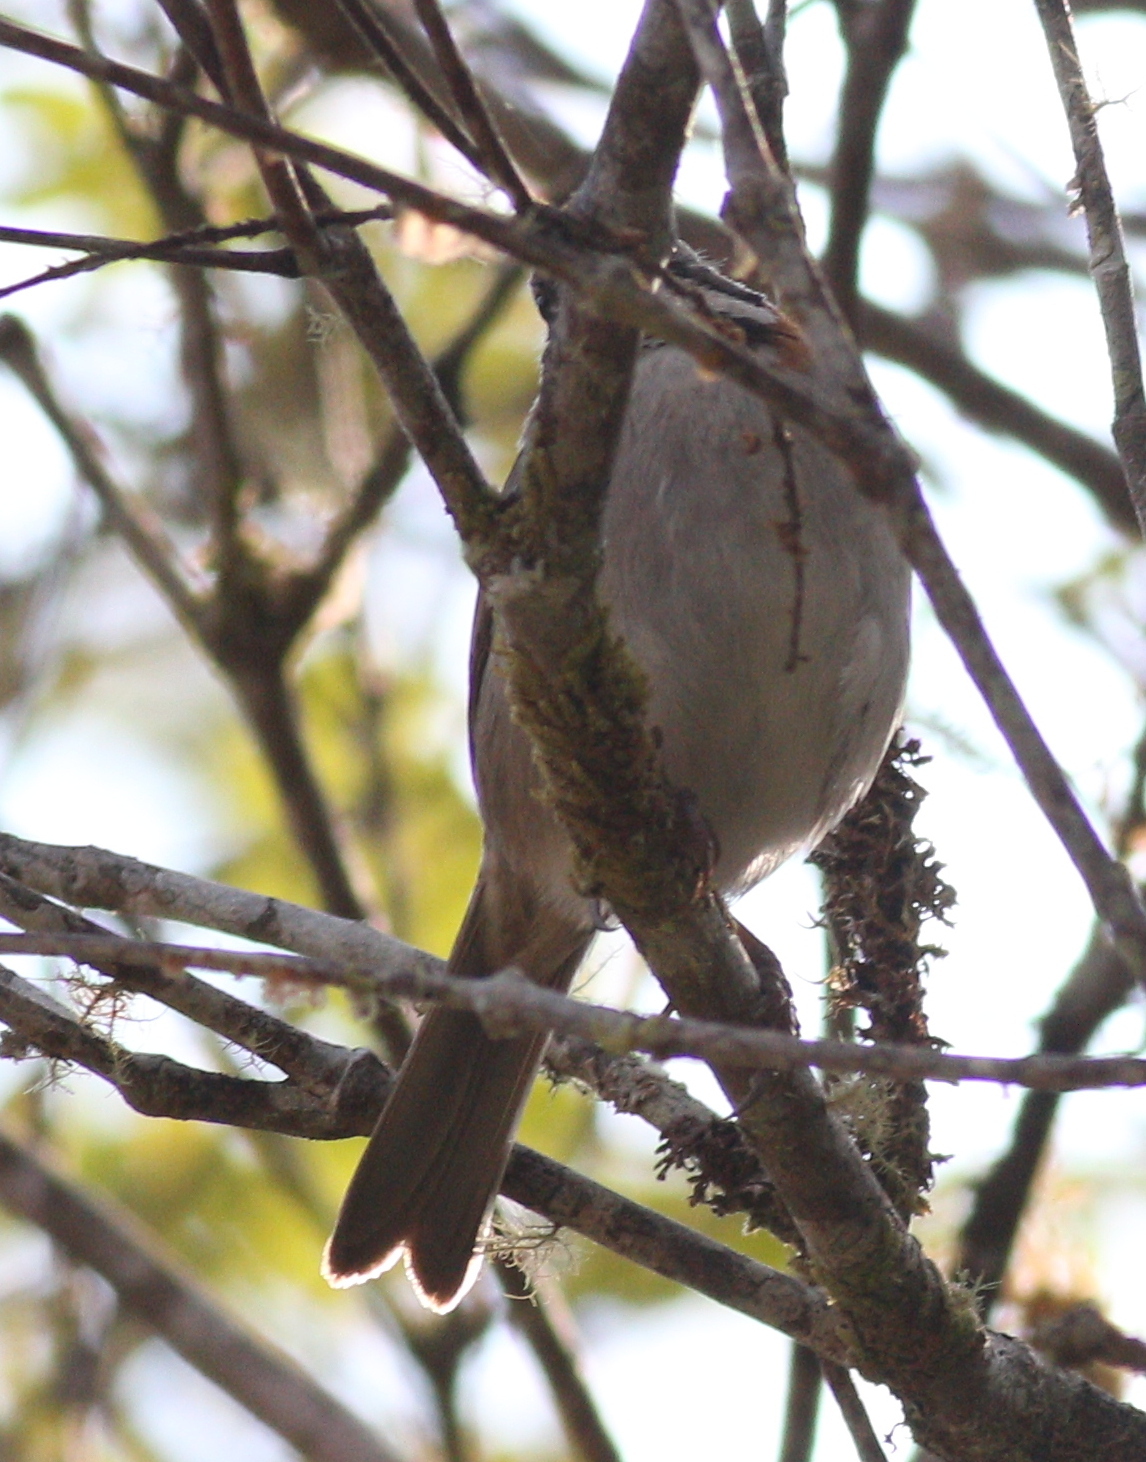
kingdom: Animalia
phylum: Chordata
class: Aves
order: Passeriformes
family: Passerellidae
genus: Zonotrichia
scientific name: Zonotrichia capensis
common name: Rufous-collared sparrow
